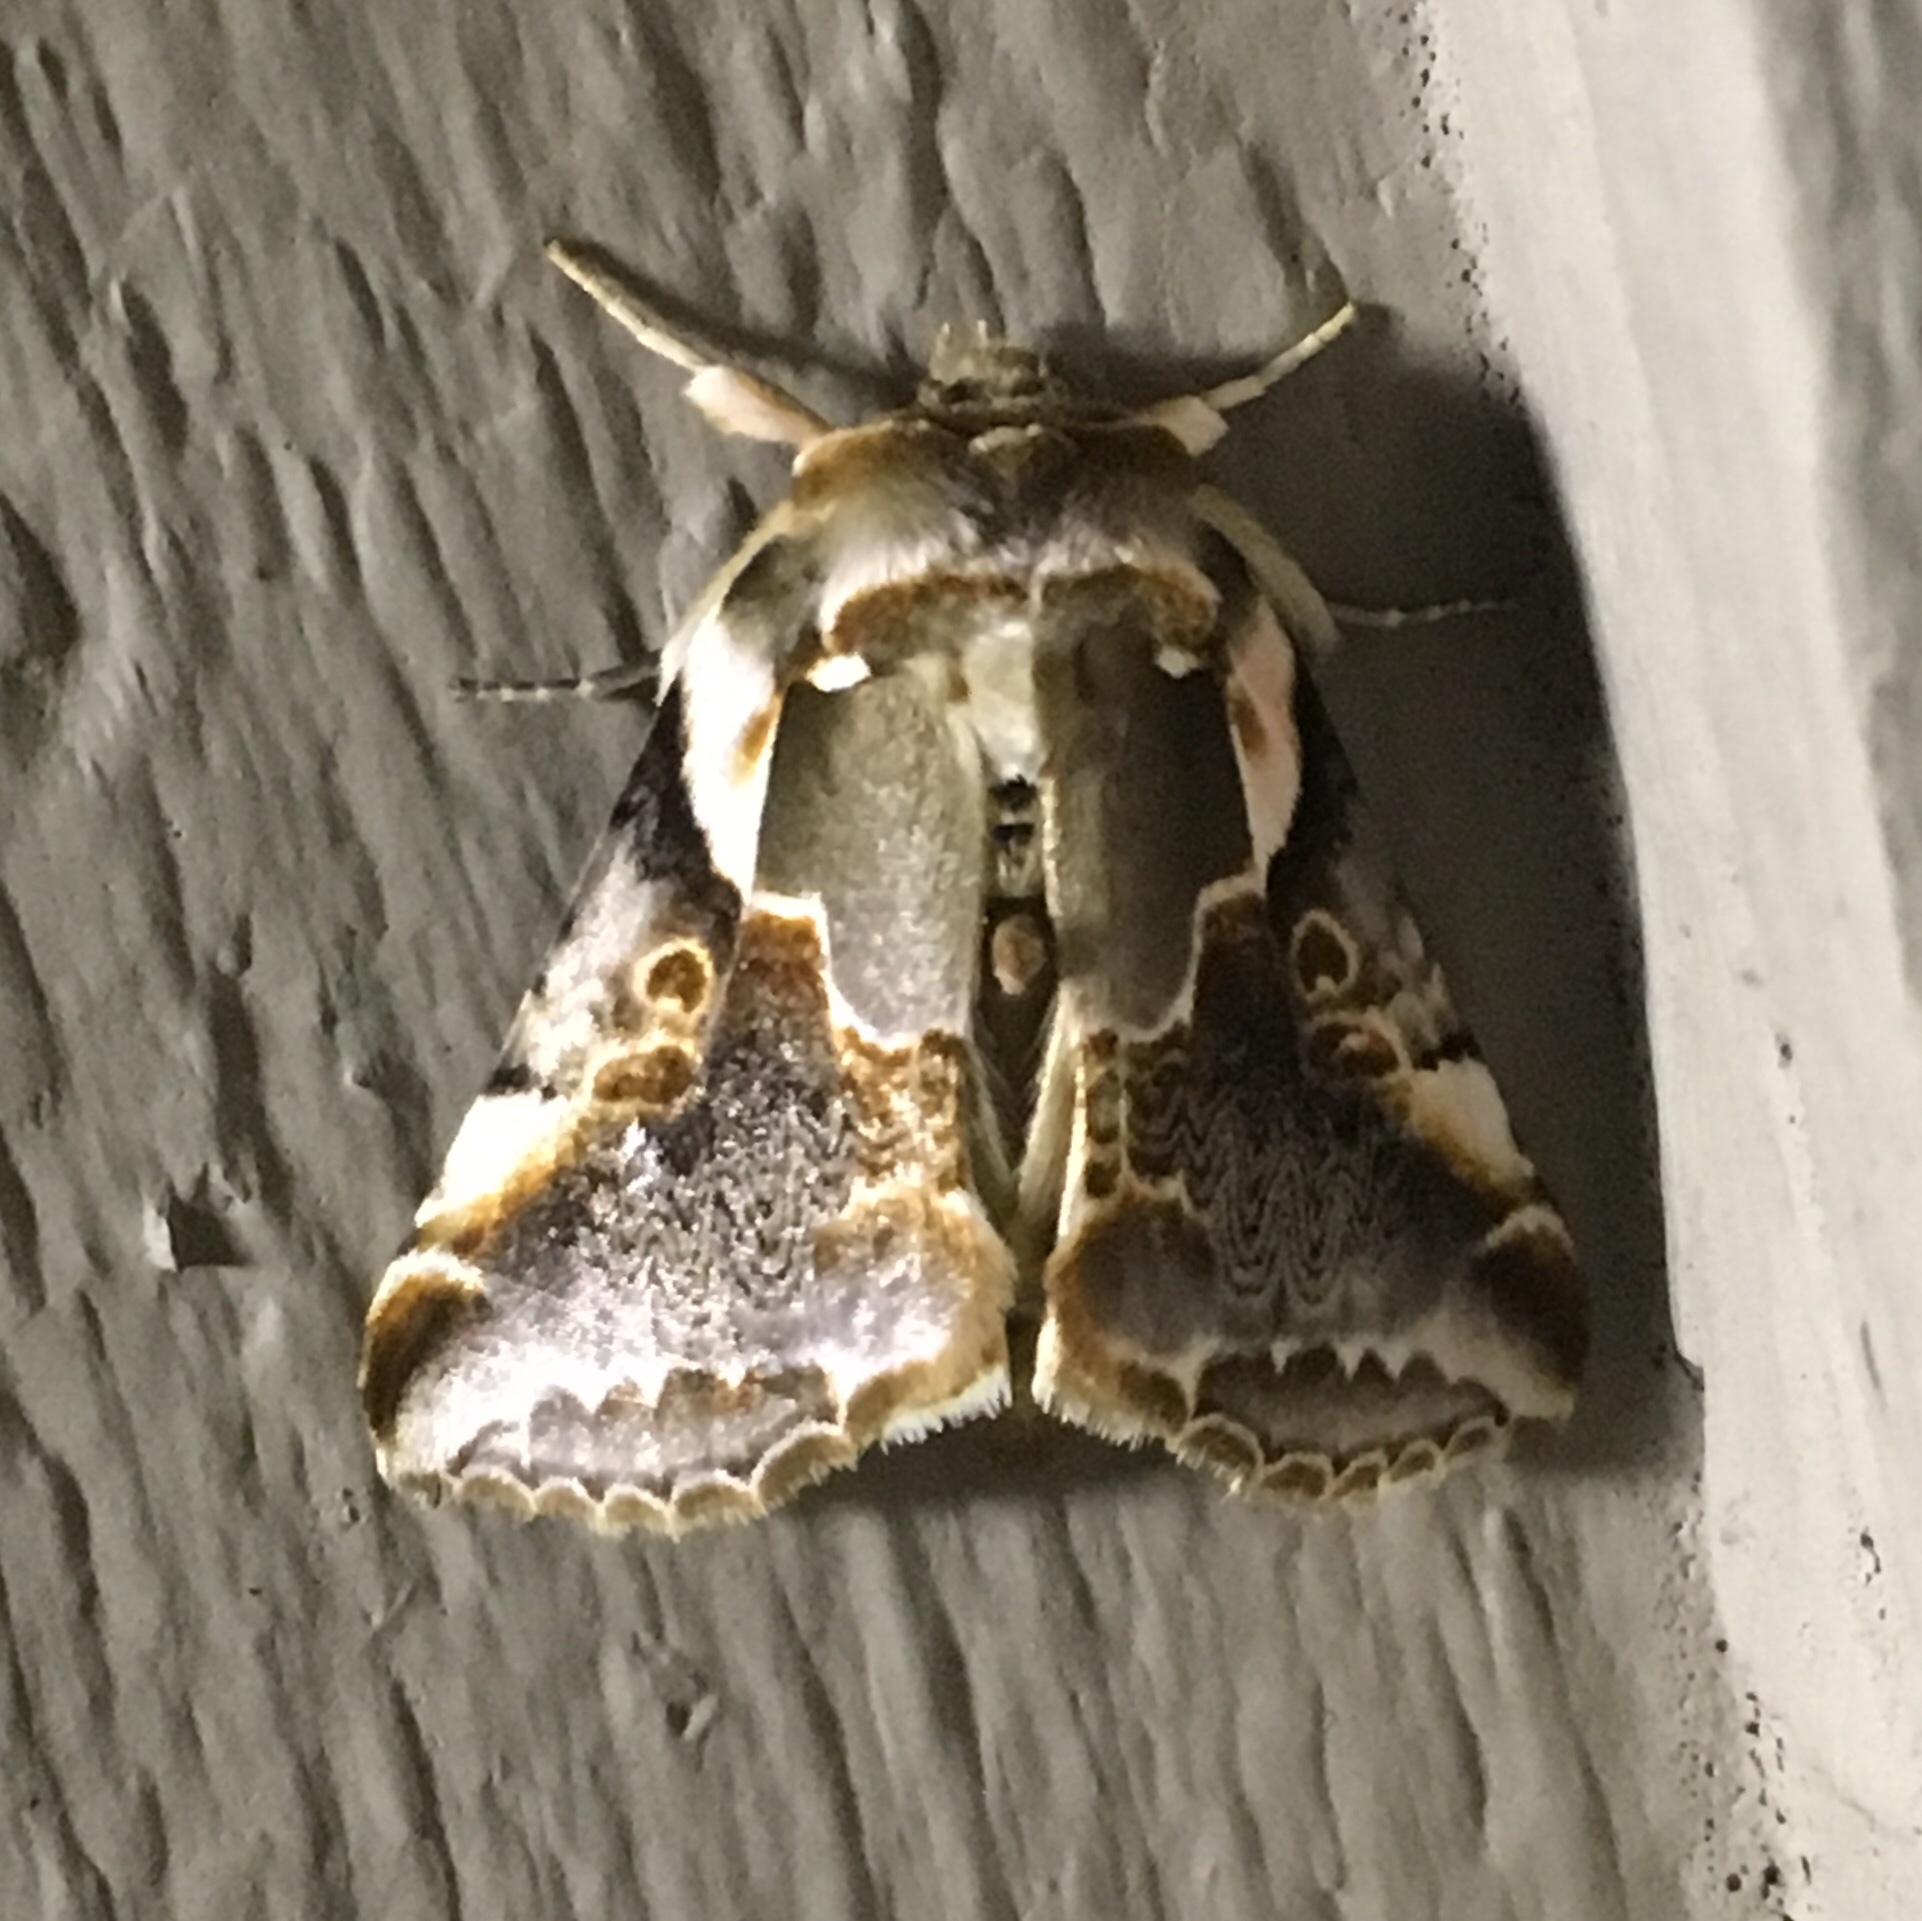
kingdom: Animalia
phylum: Arthropoda
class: Insecta
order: Lepidoptera
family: Drepanidae
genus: Habrosyne
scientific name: Habrosyne gloriosa
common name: Glorious habrosyne moth
